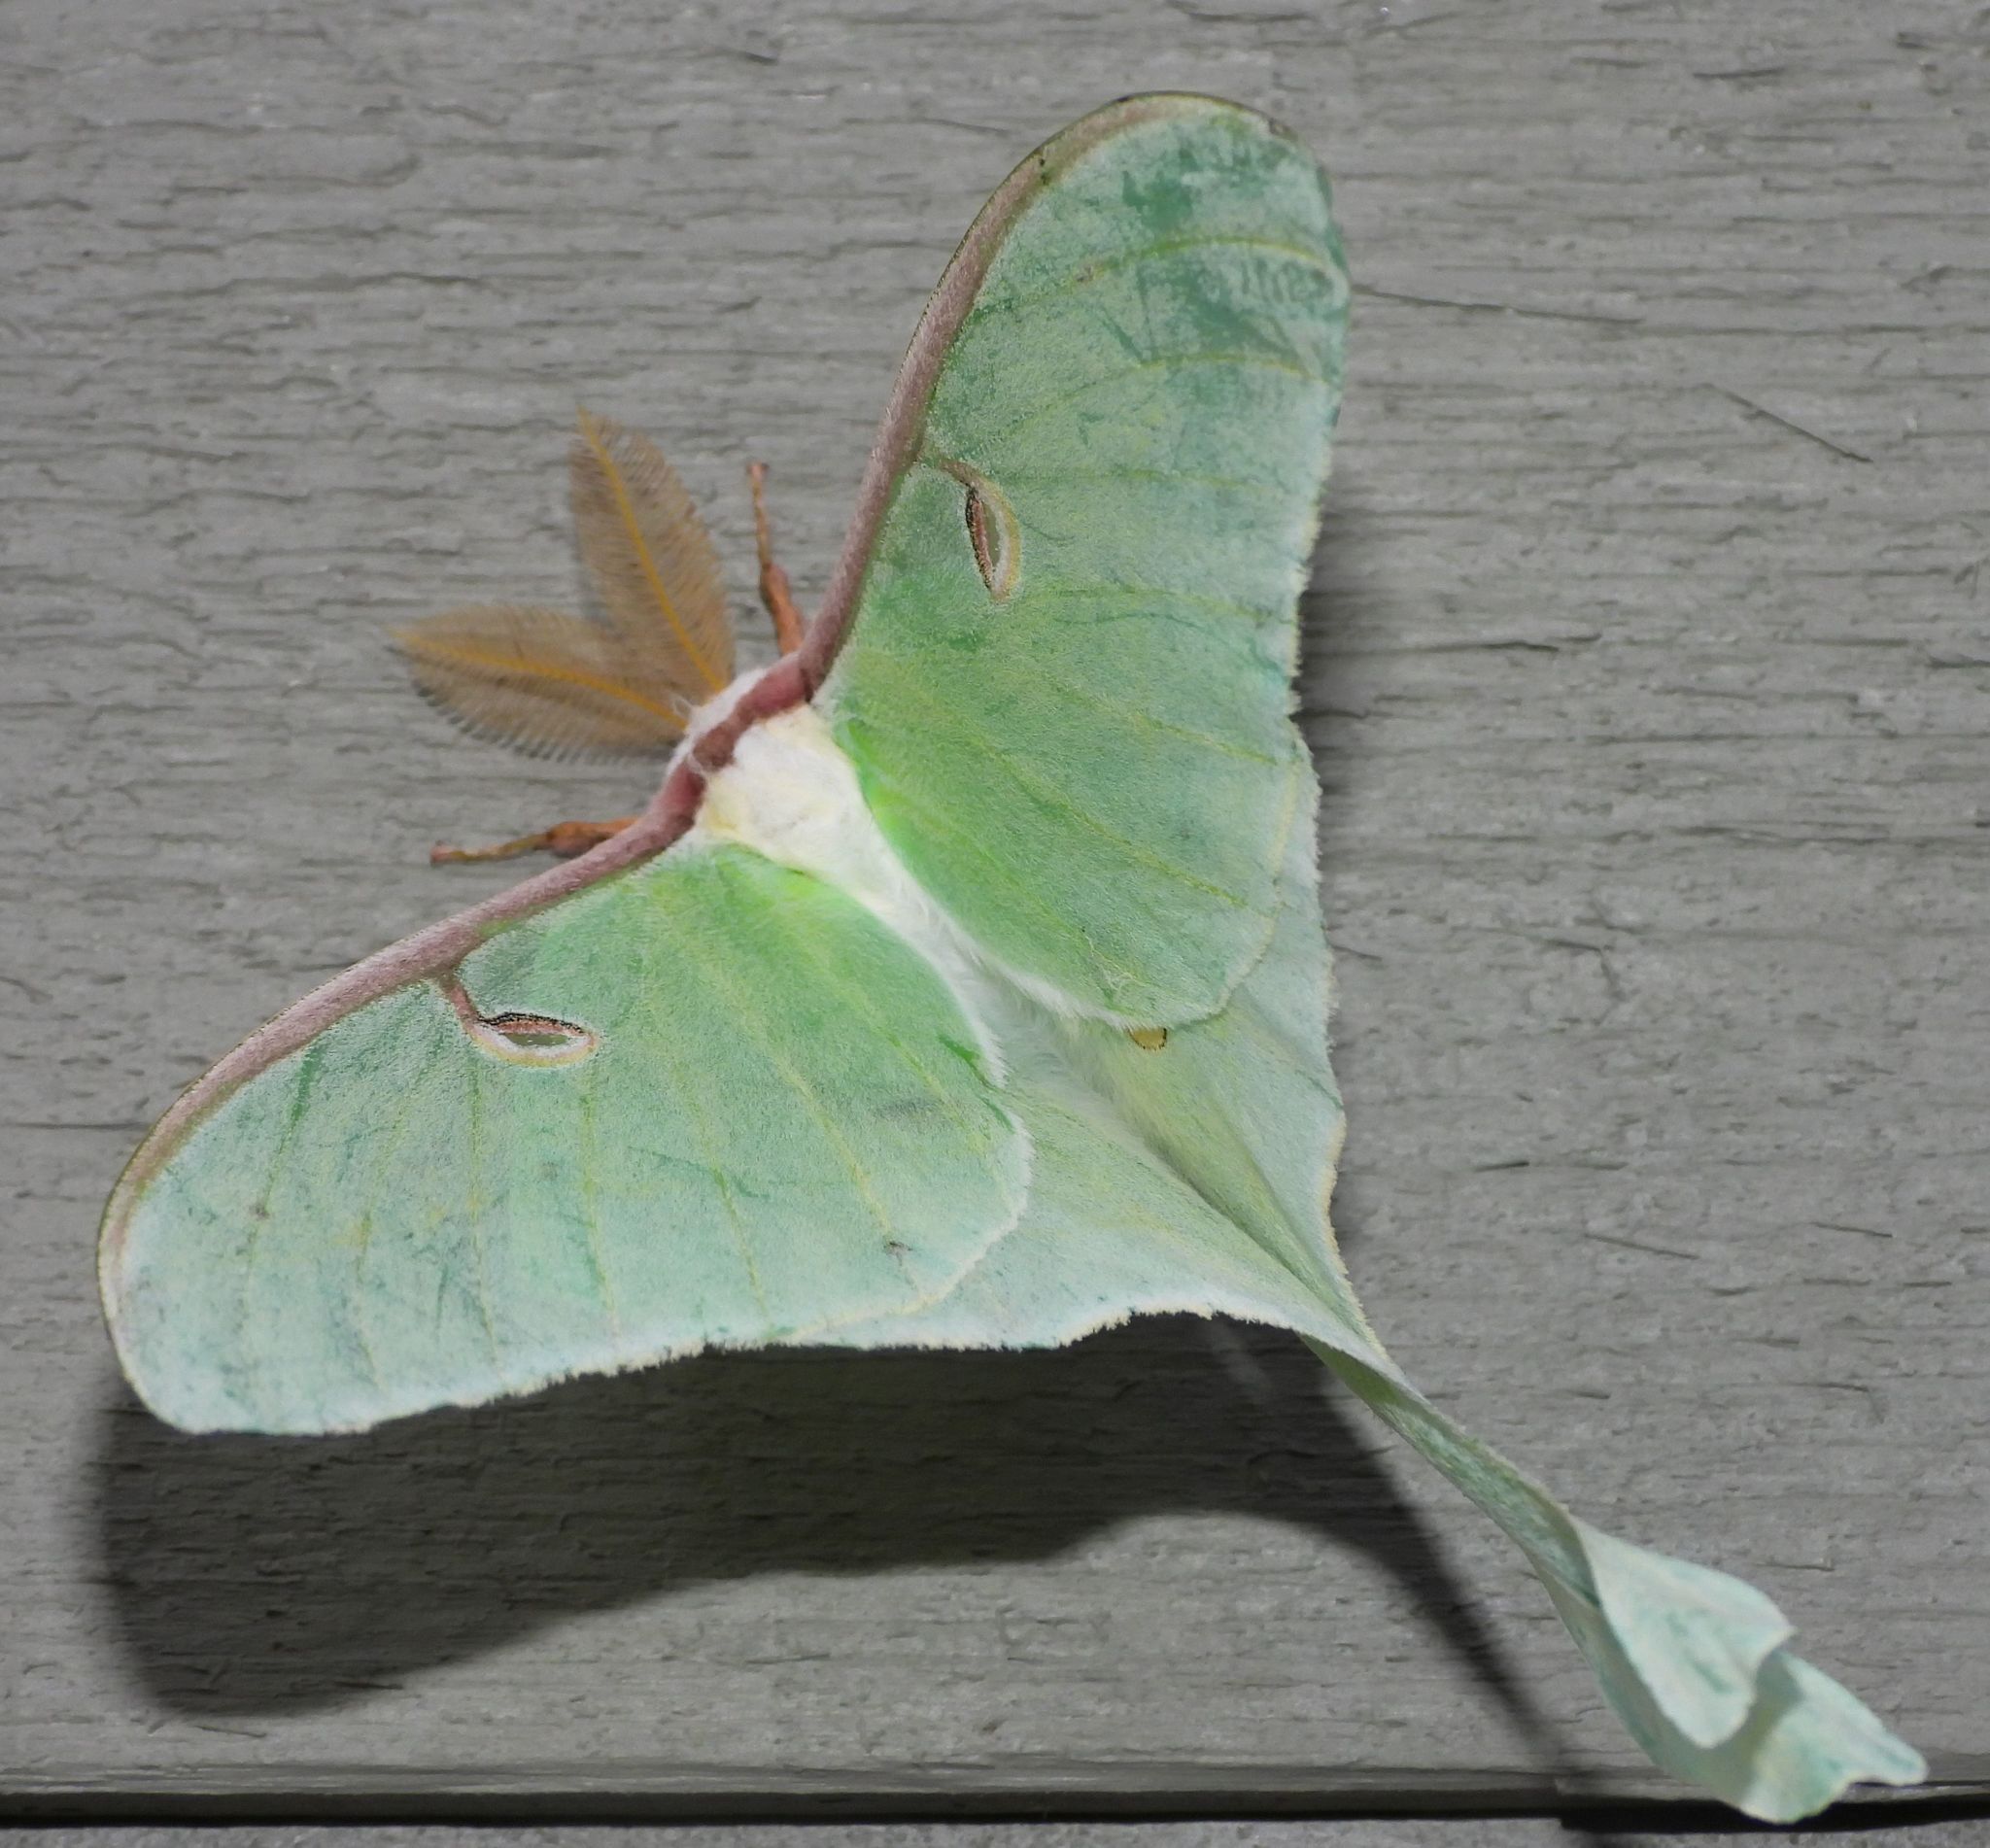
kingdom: Animalia
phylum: Arthropoda
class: Insecta
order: Lepidoptera
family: Saturniidae
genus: Actias
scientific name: Actias luna
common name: Luna moth
